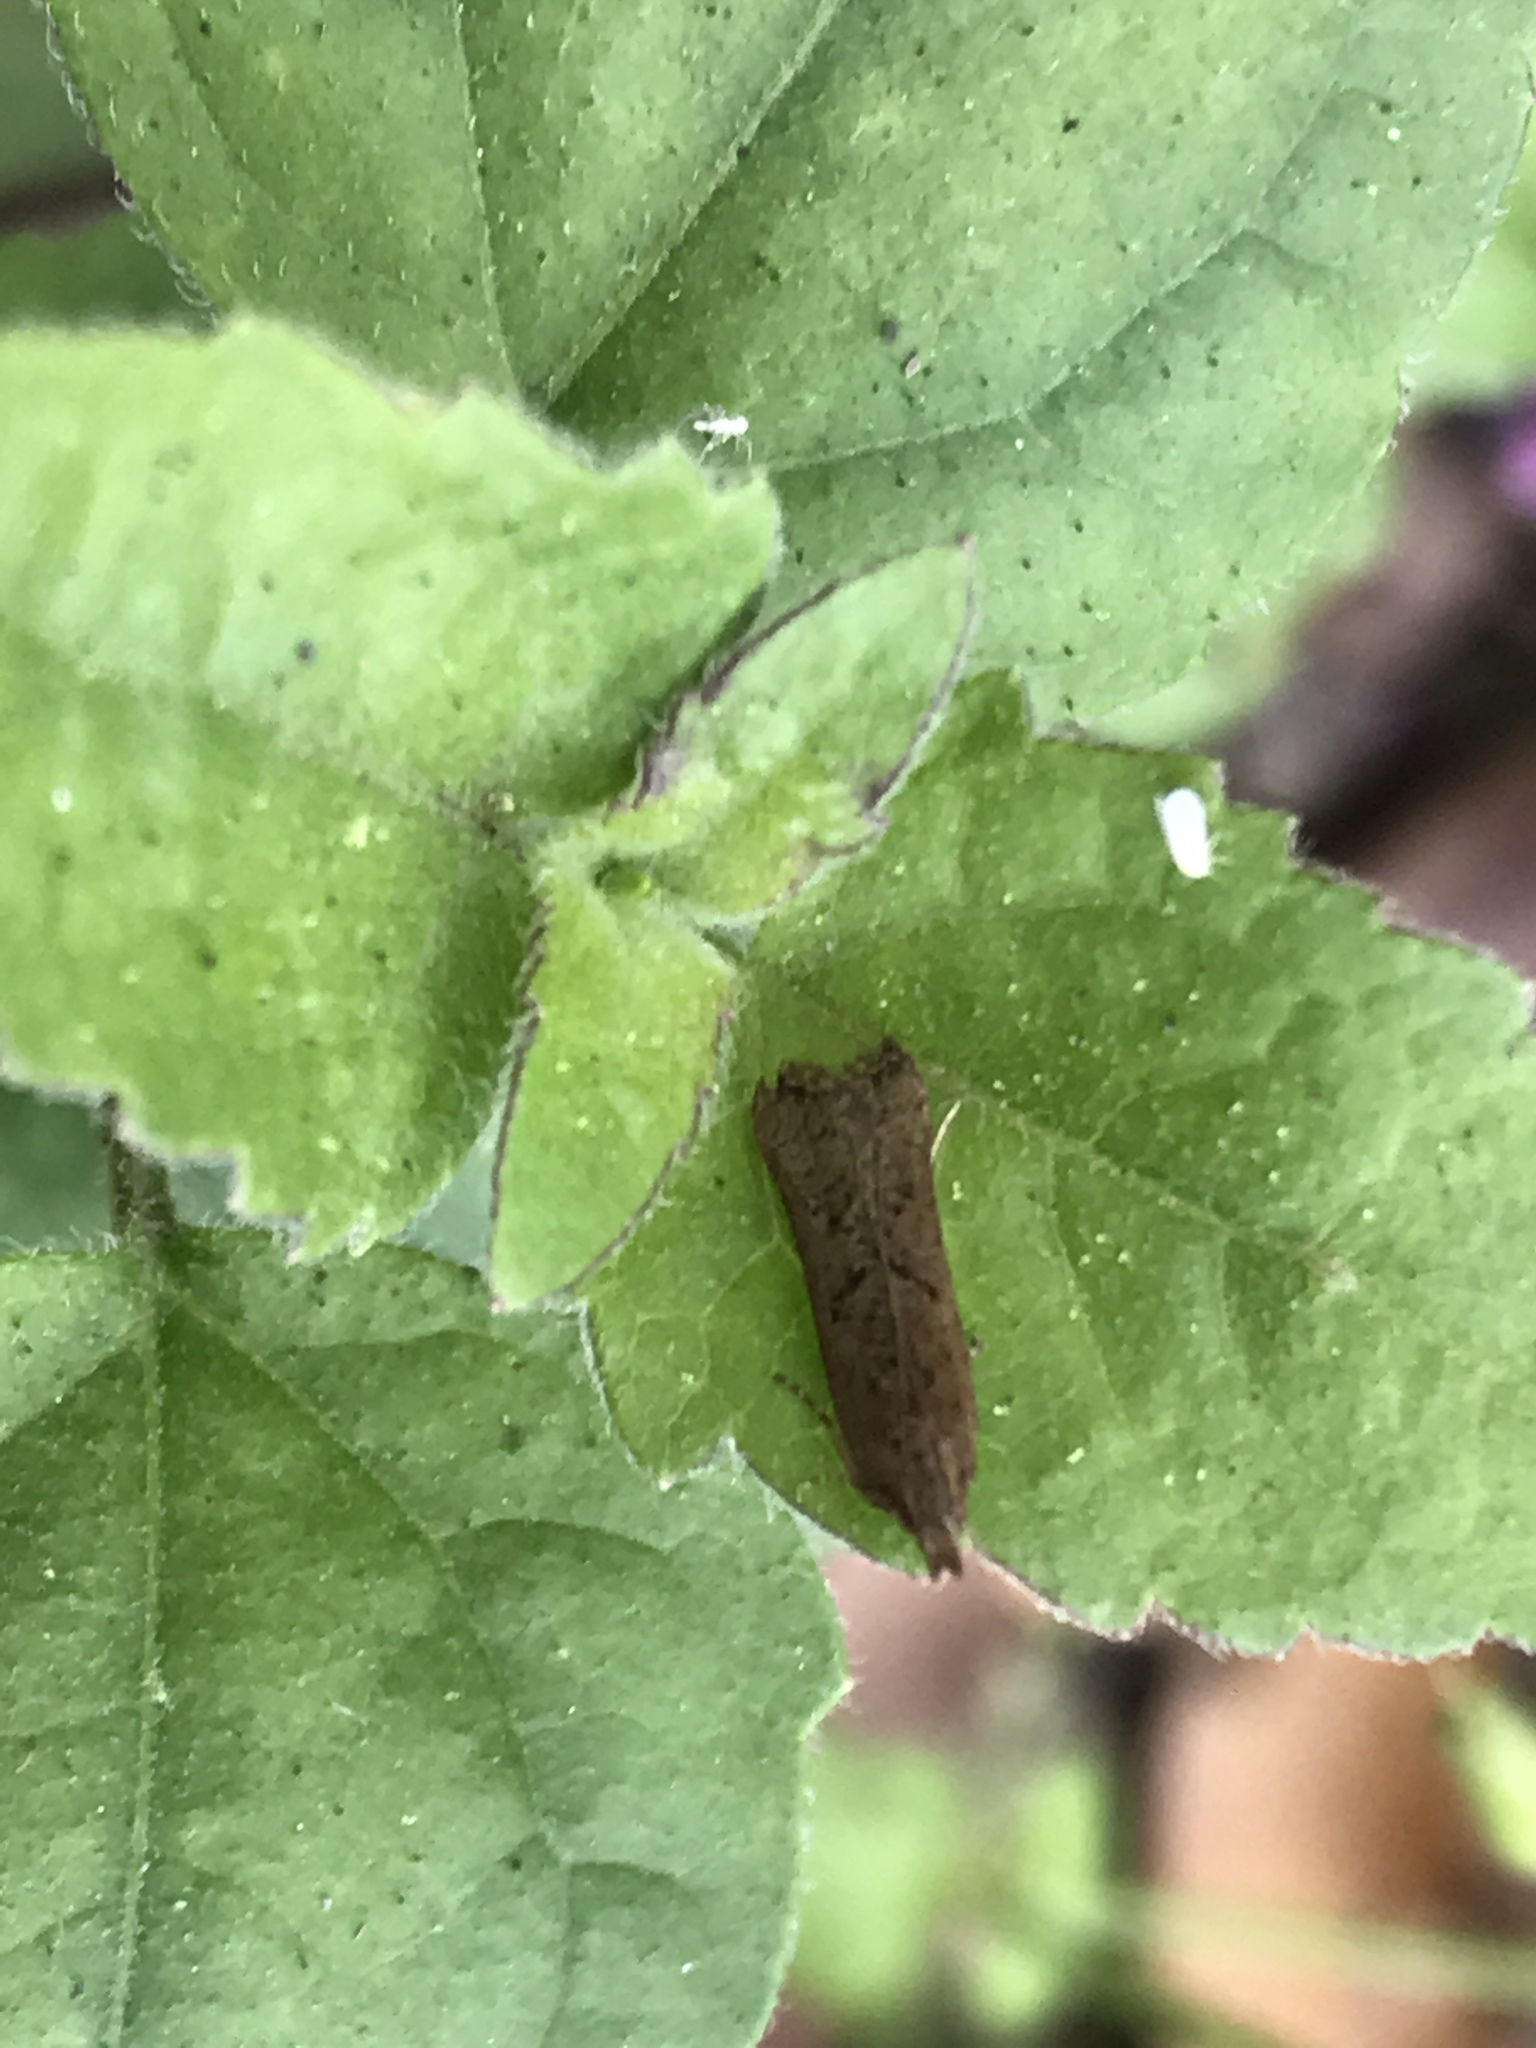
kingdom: Animalia
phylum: Arthropoda
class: Insecta
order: Lepidoptera
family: Gelechiidae
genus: Dichomeris
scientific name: Dichomeris ligulella
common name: Moth
